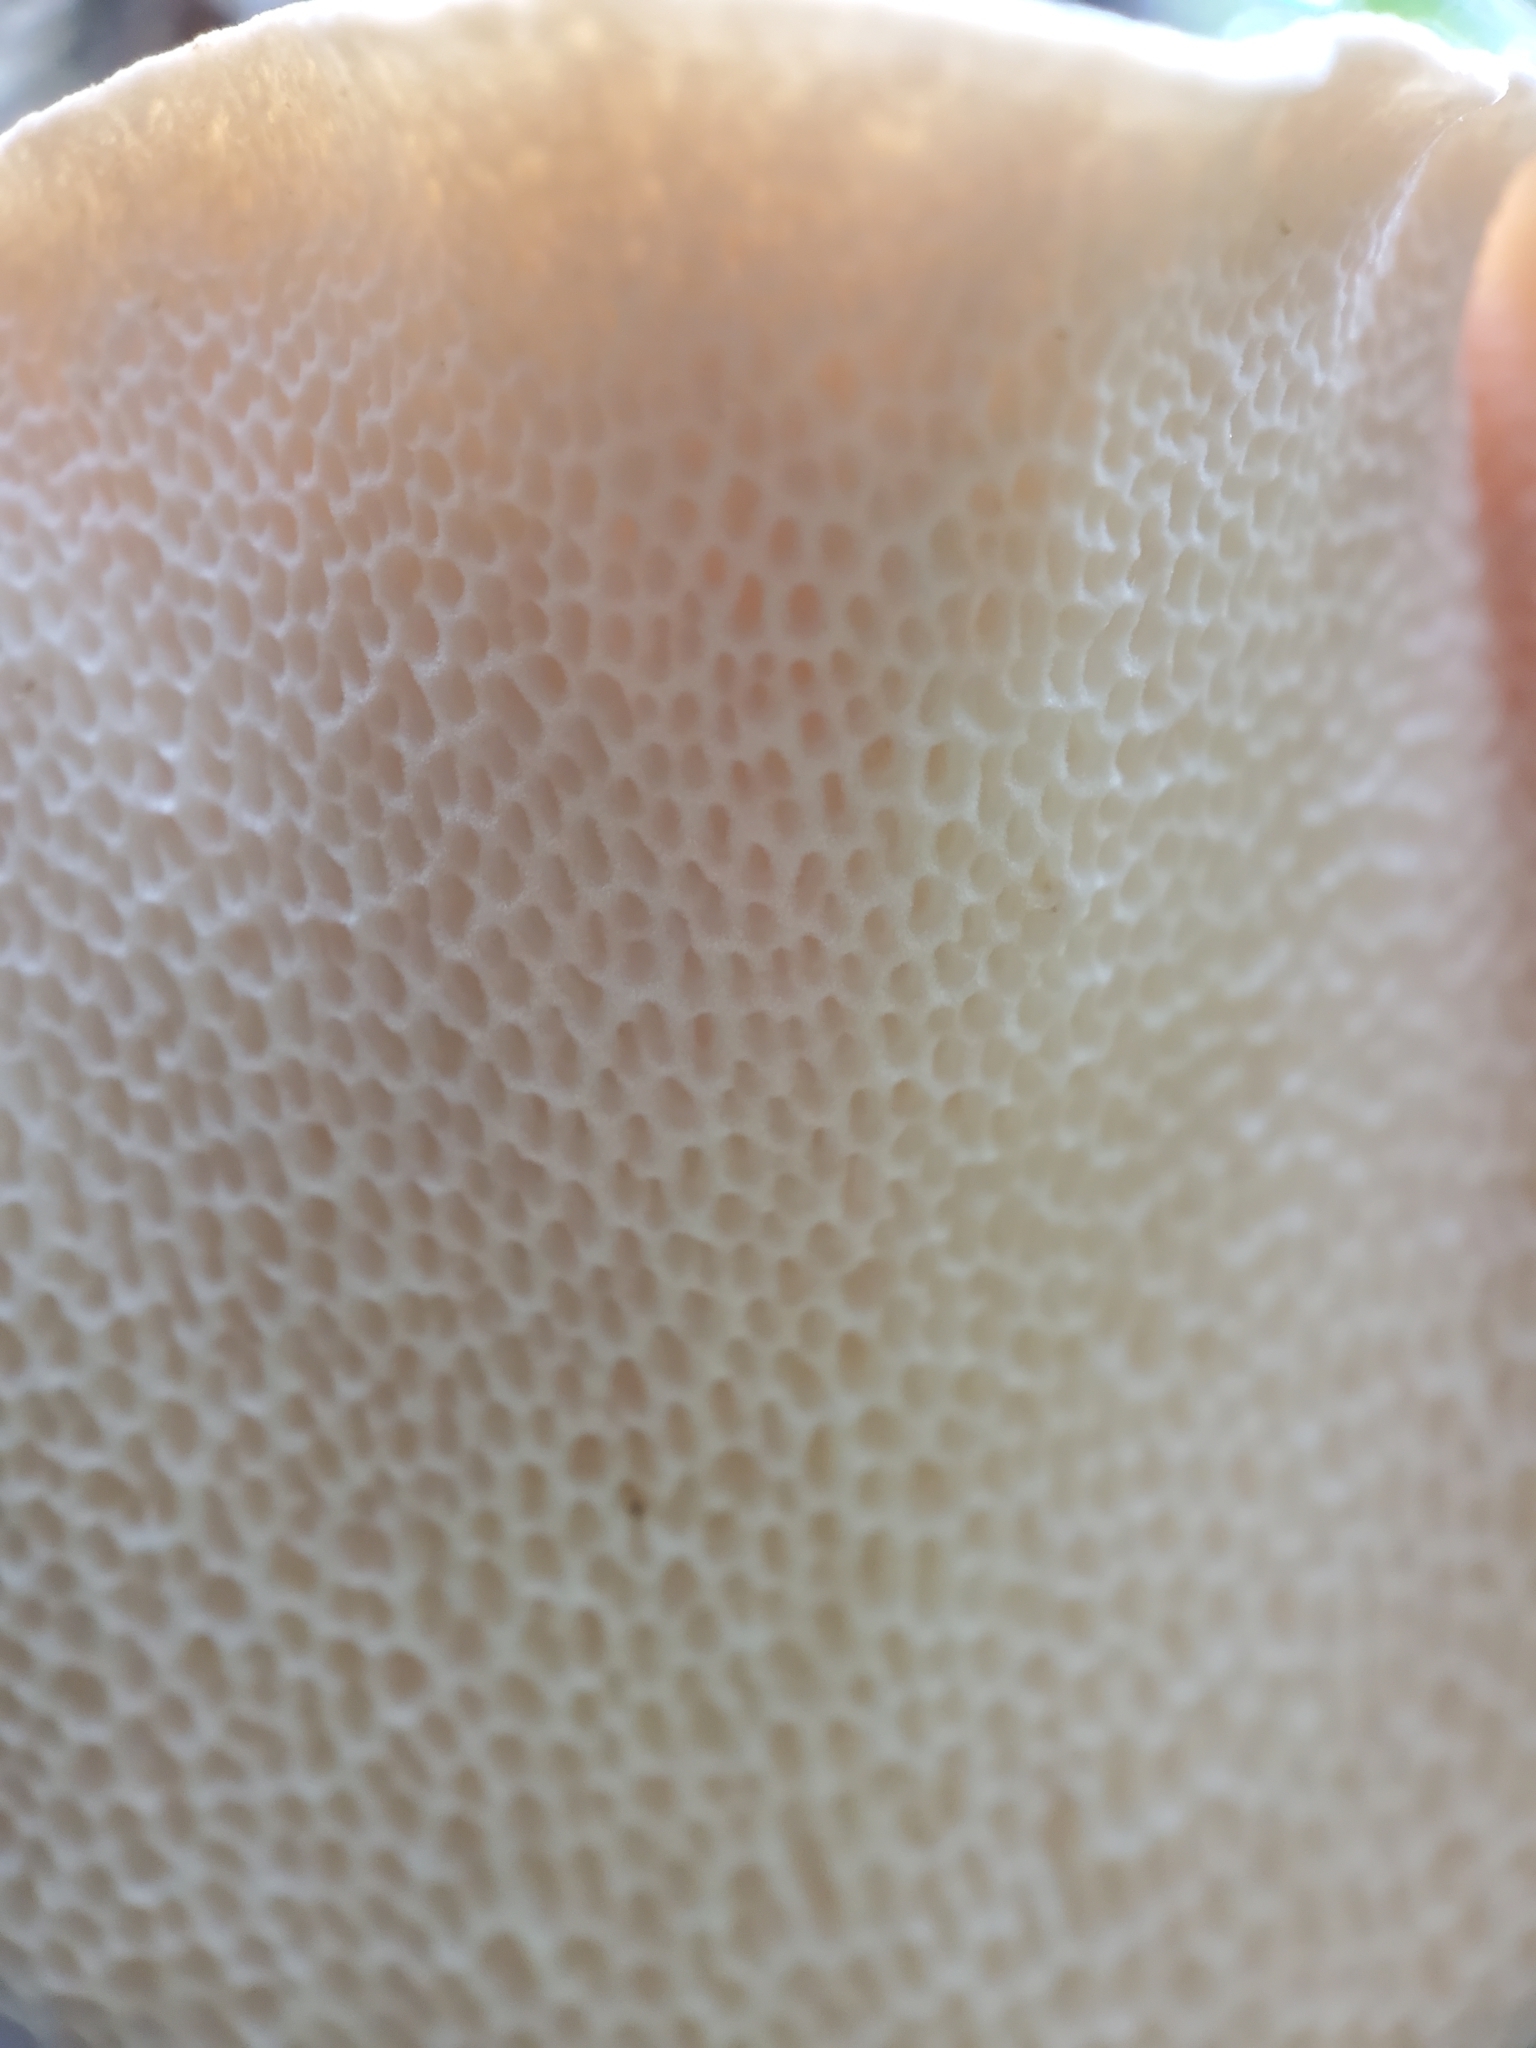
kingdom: Fungi
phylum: Basidiomycota
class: Agaricomycetes
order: Polyporales
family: Polyporaceae
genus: Cerioporus
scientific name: Cerioporus squamosus
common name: Dryad's saddle
